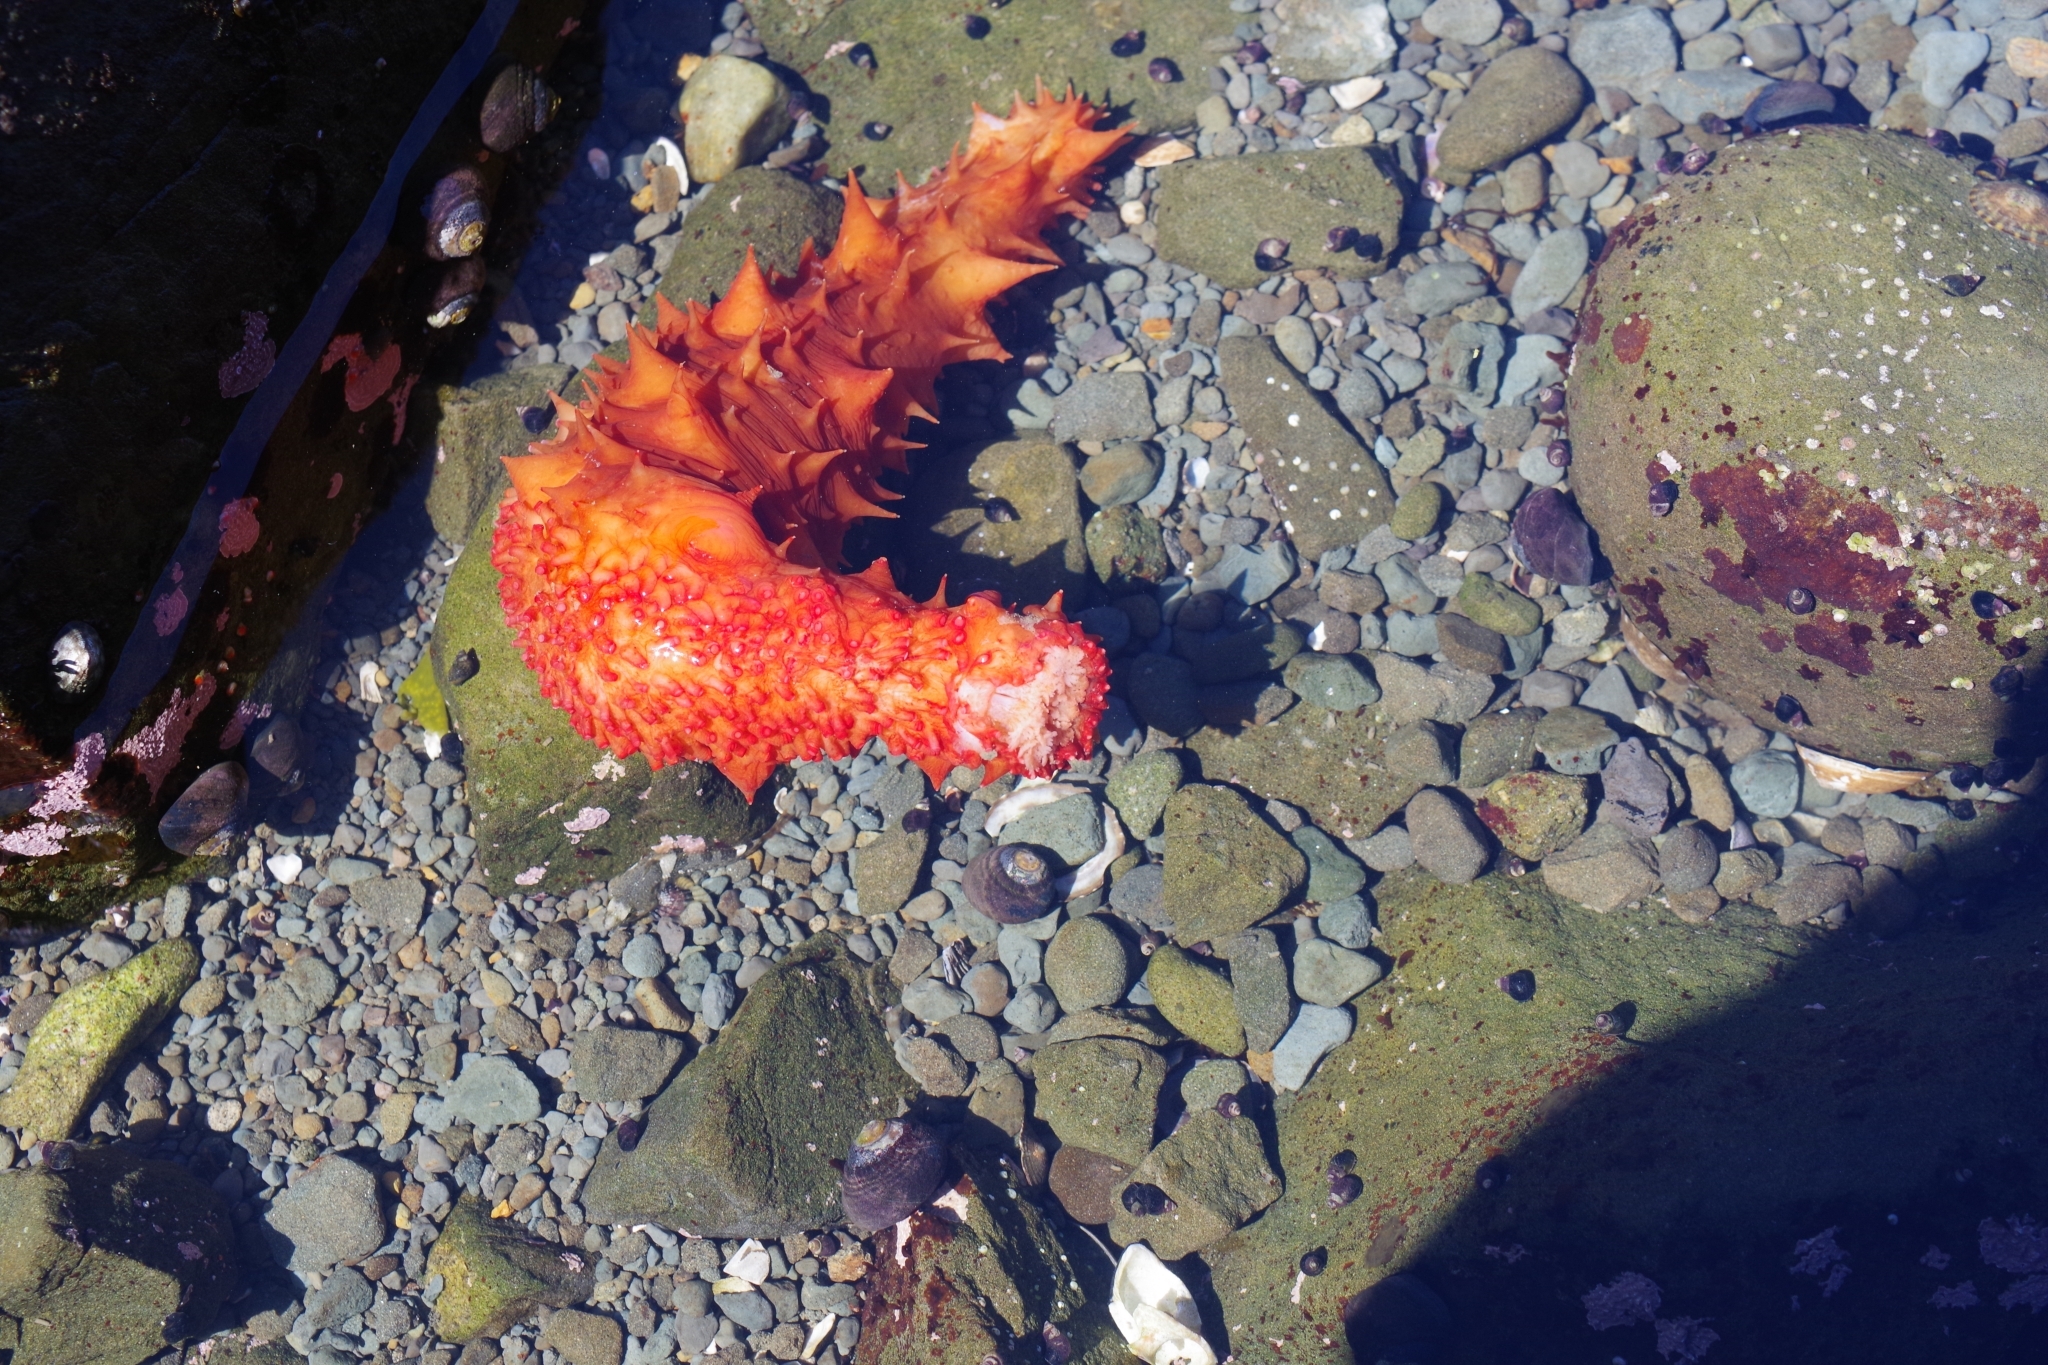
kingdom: Animalia
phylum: Echinodermata
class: Holothuroidea
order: Synallactida
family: Stichopodidae
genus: Apostichopus
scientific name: Apostichopus californicus
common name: California sea cucumber
